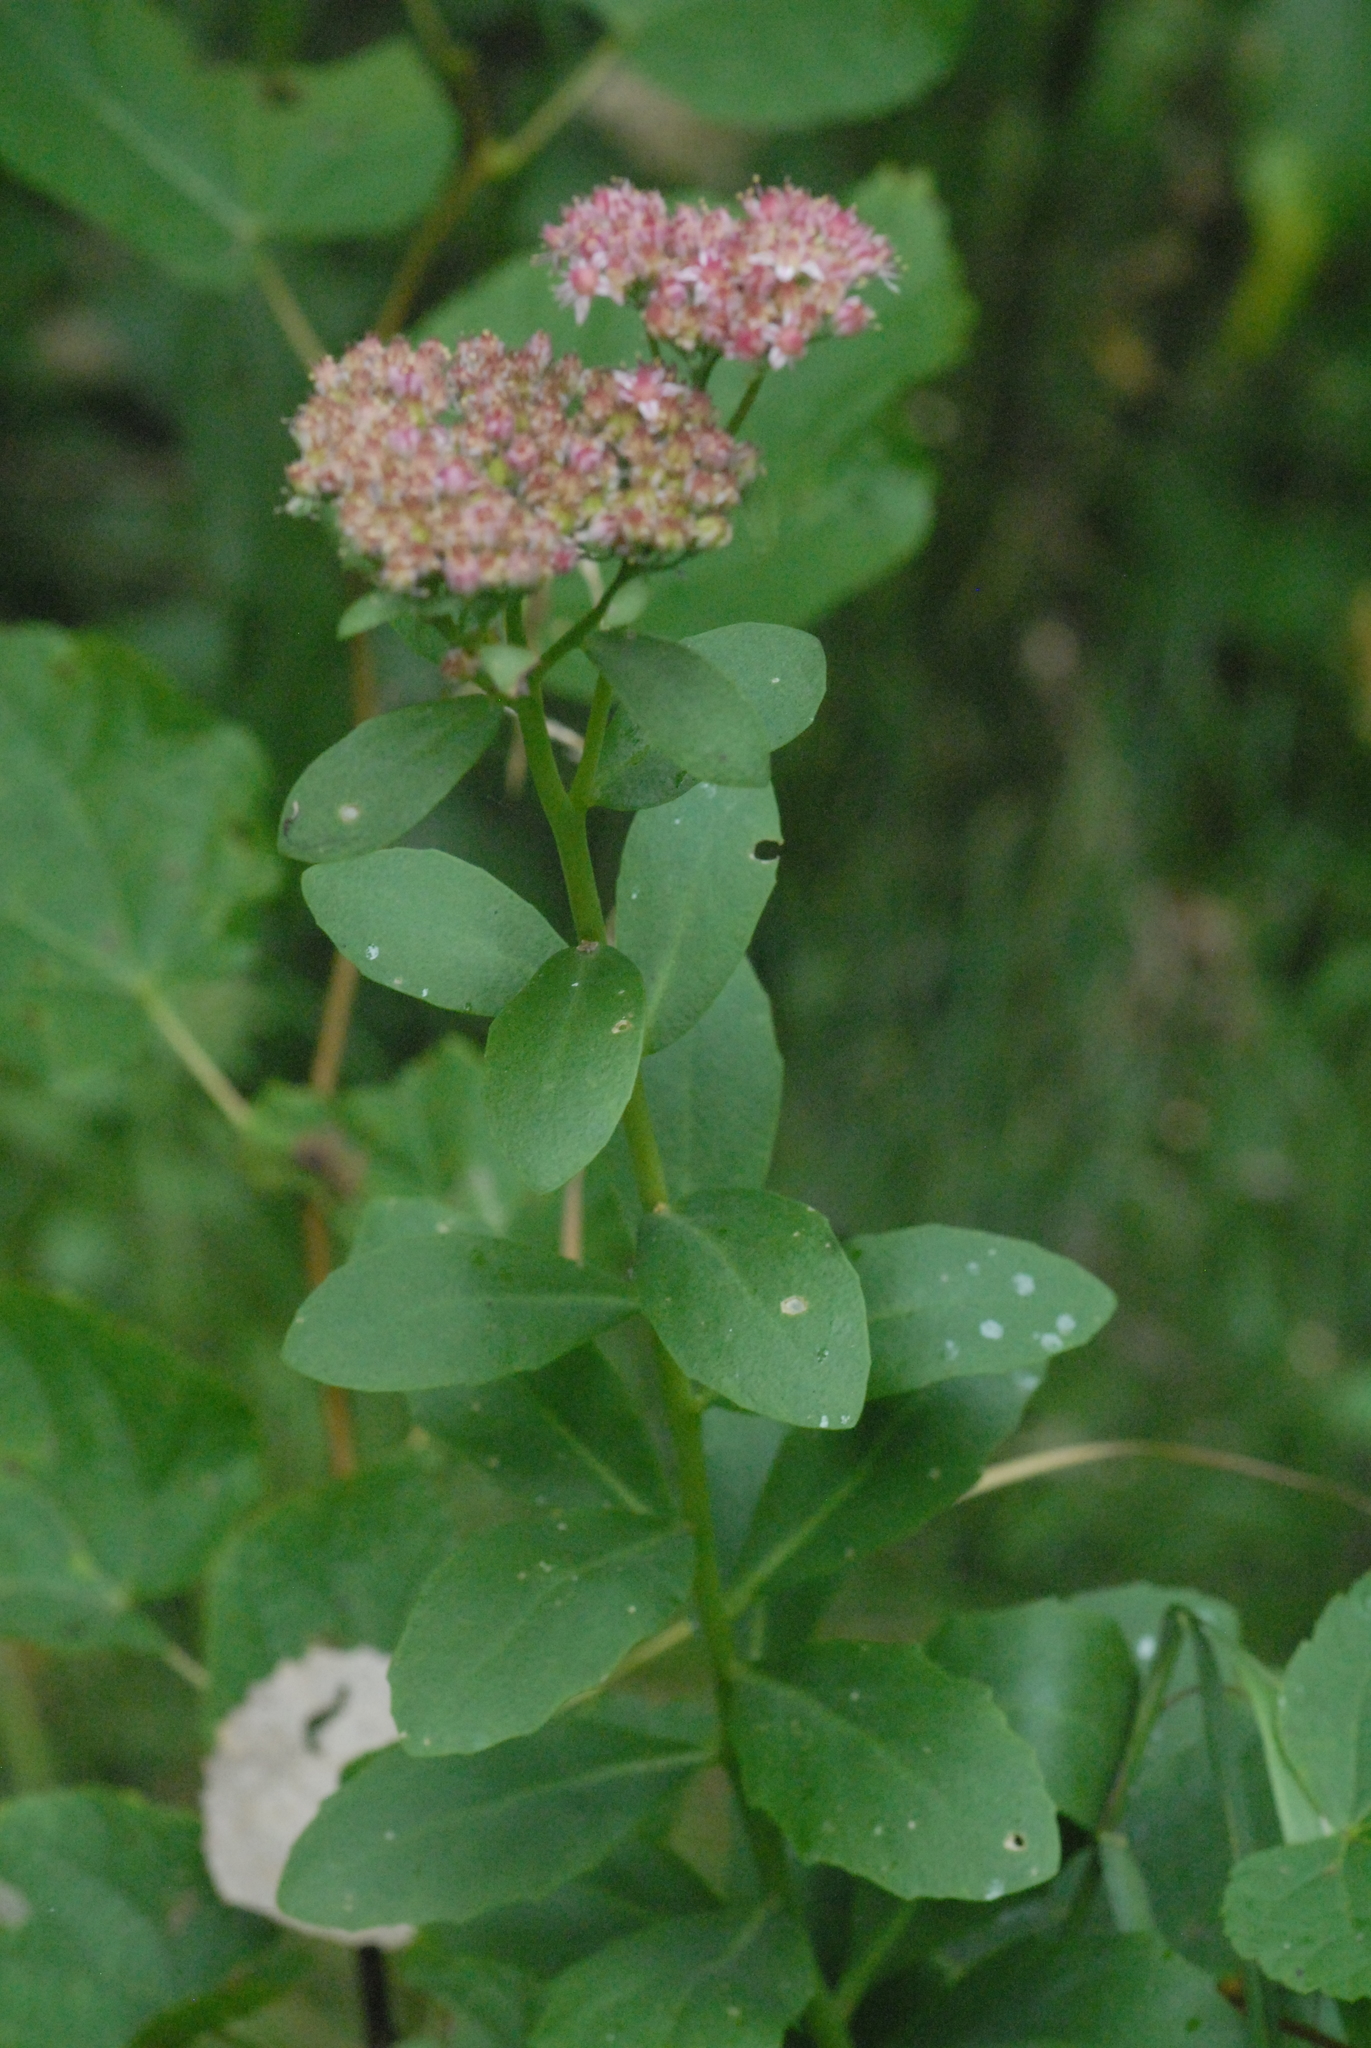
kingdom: Plantae
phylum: Tracheophyta
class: Magnoliopsida
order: Saxifragales
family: Crassulaceae
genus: Hylotelephium
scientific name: Hylotelephium telephium
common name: Live-forever
